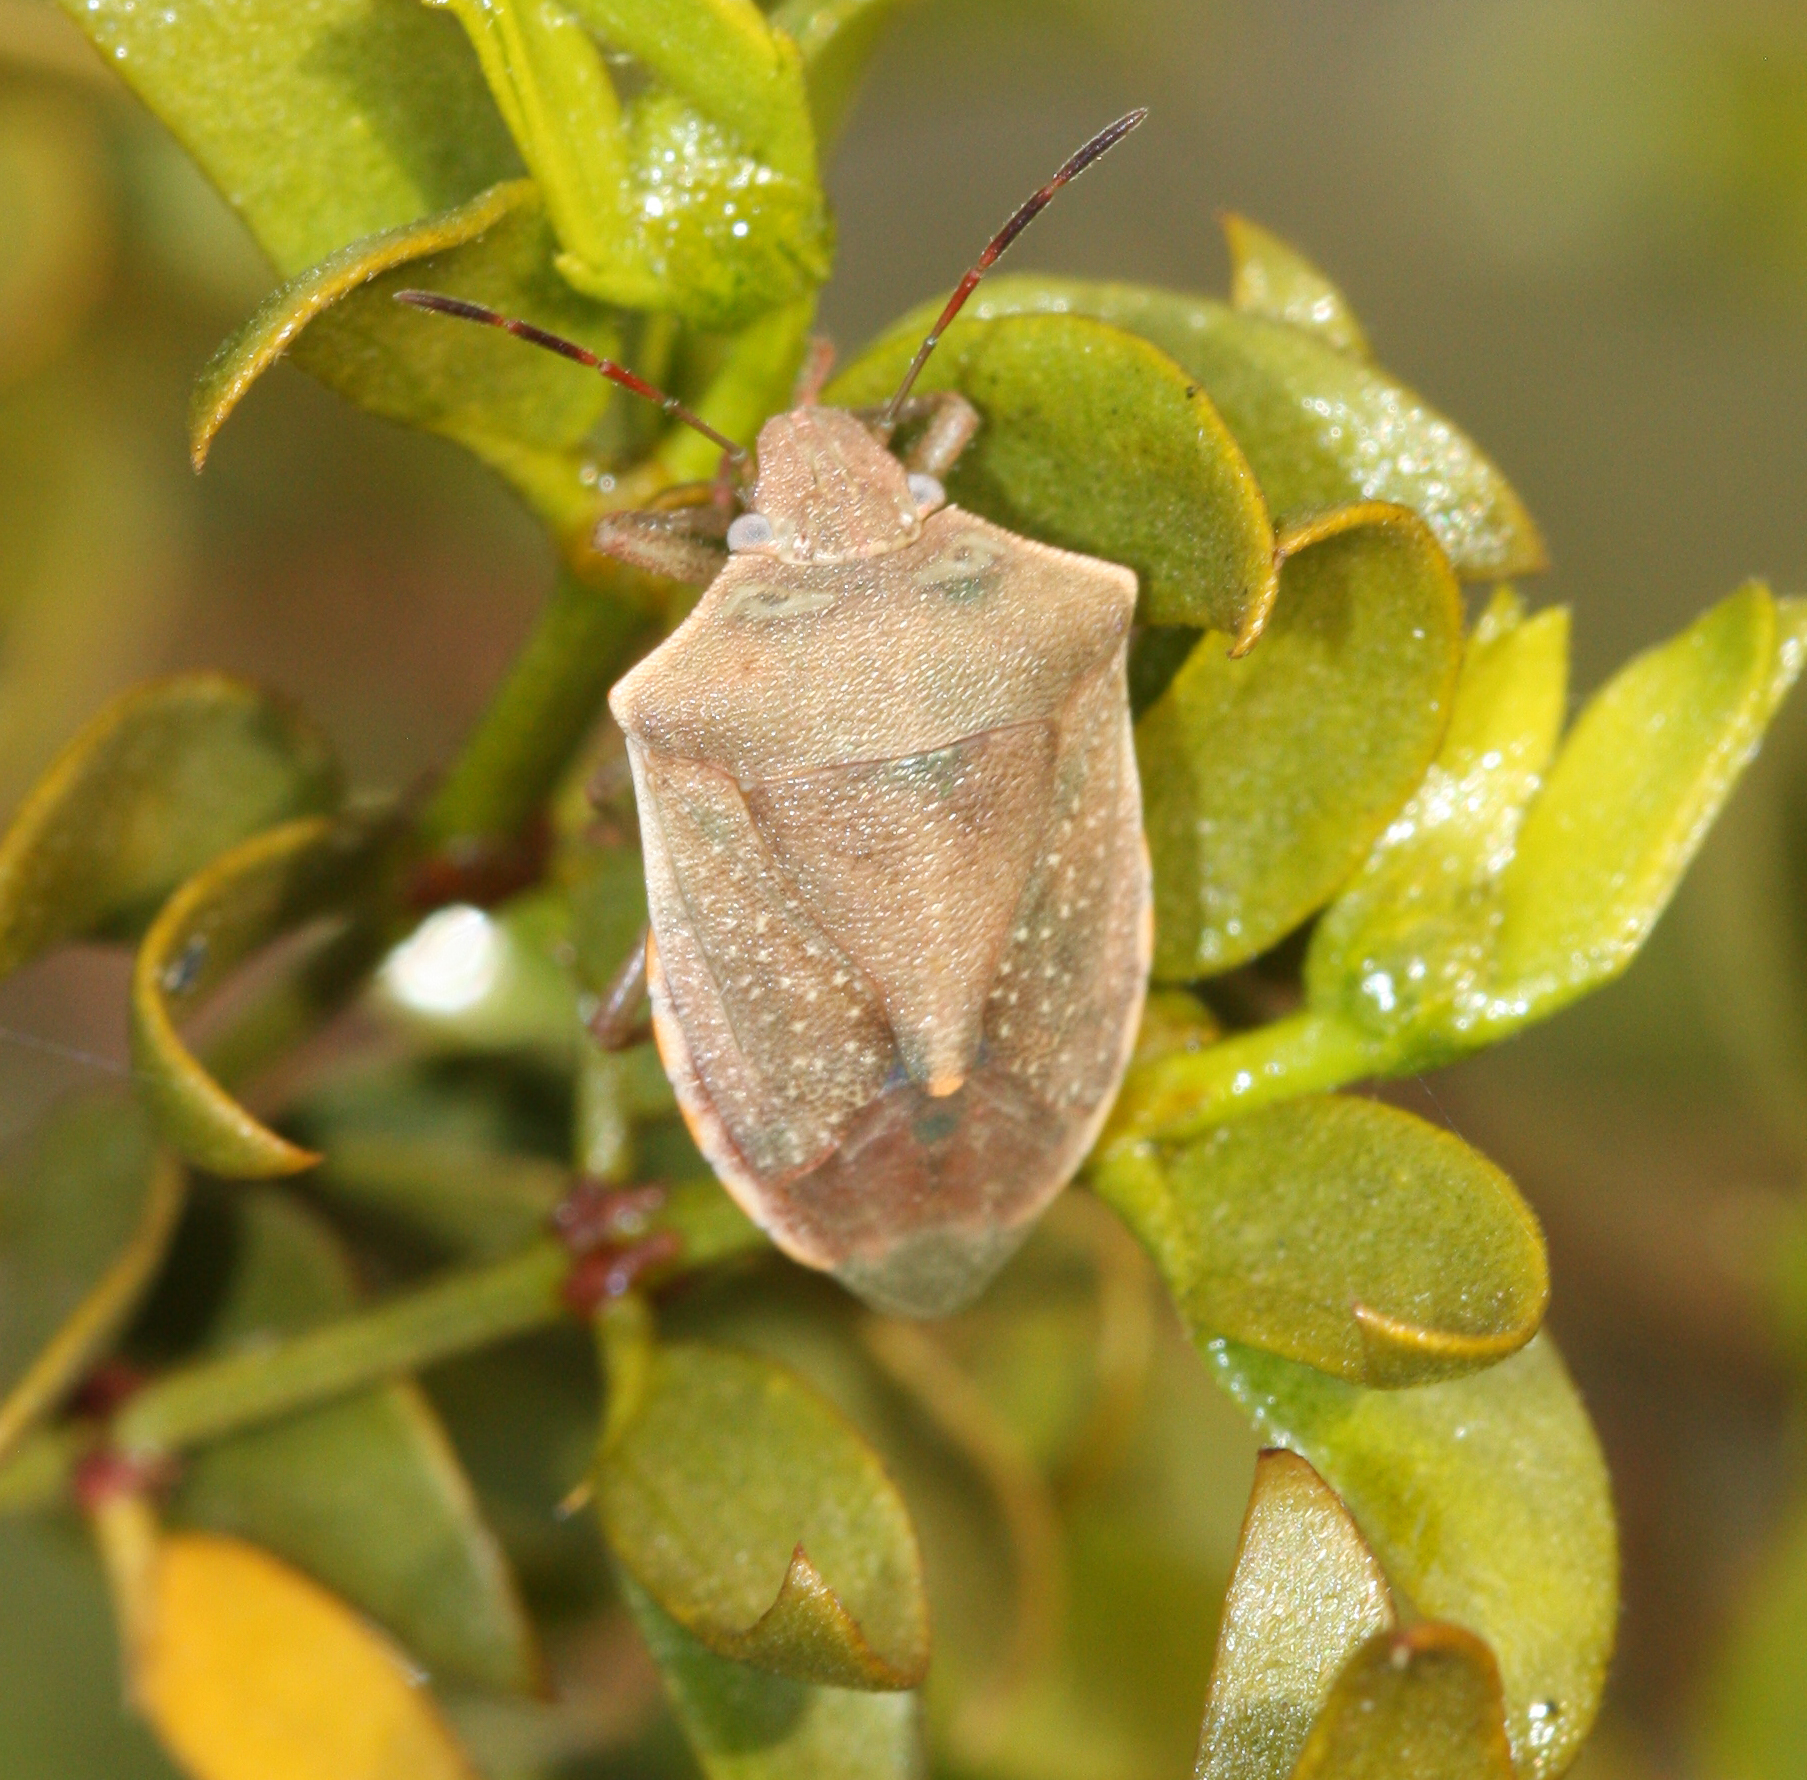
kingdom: Animalia
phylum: Arthropoda
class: Insecta
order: Hemiptera
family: Pentatomidae
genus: Thyanta
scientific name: Thyanta accerra
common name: Stink bug
